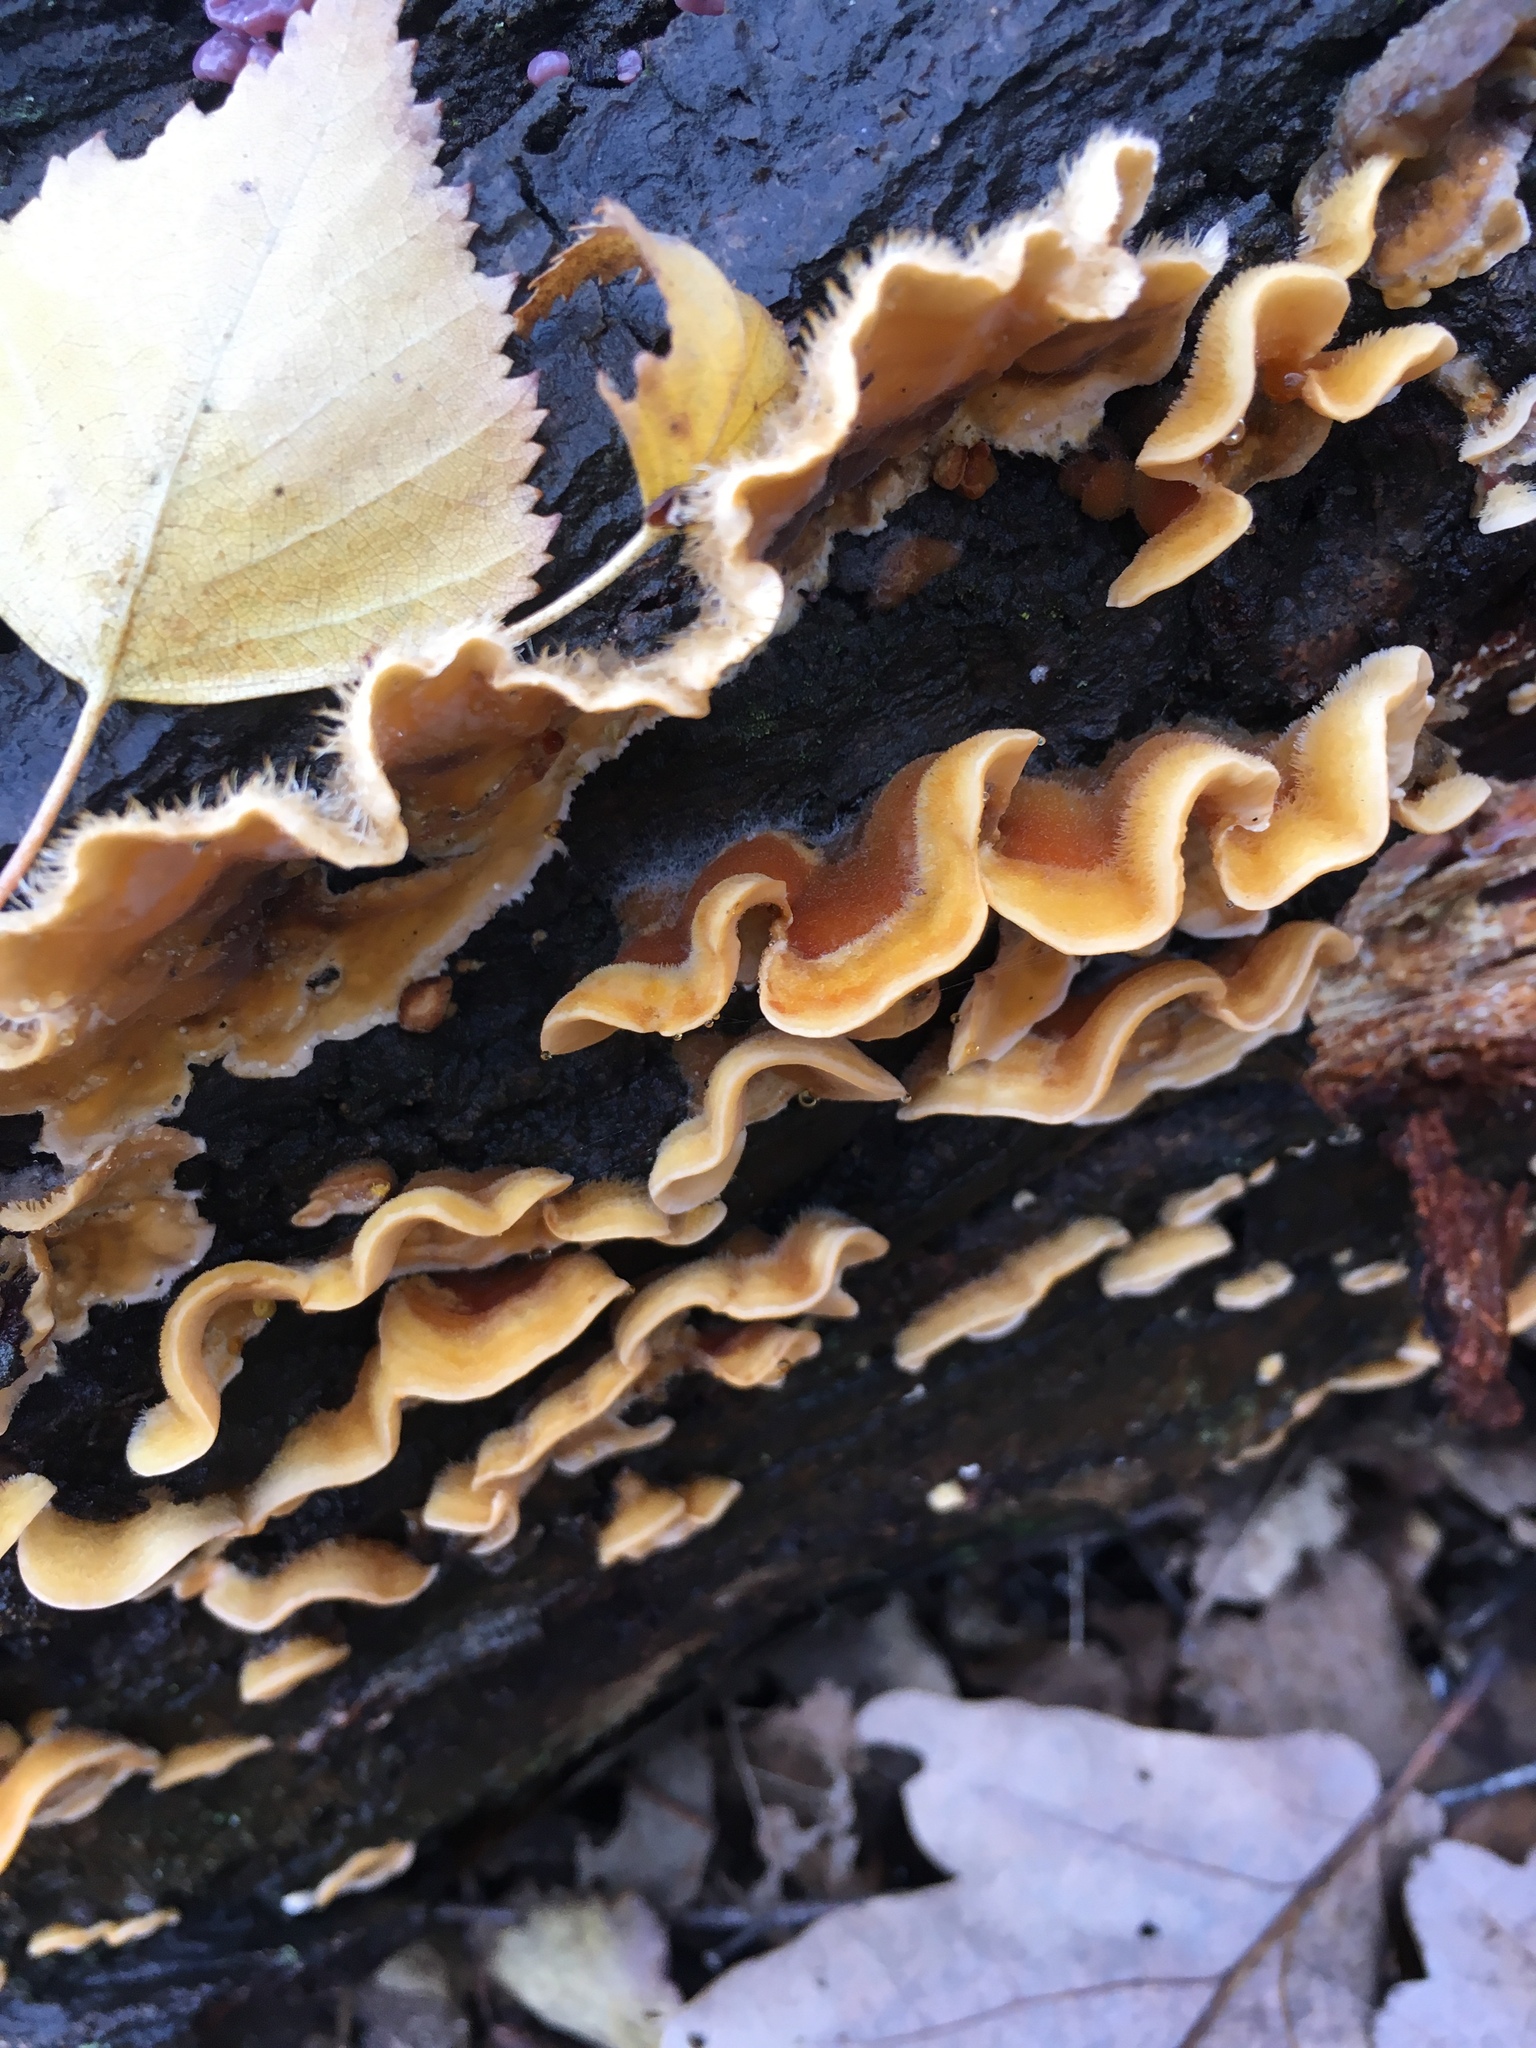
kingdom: Fungi
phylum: Basidiomycota
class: Agaricomycetes
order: Russulales
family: Stereaceae
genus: Stereum
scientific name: Stereum hirsutum
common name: Hairy curtain crust
